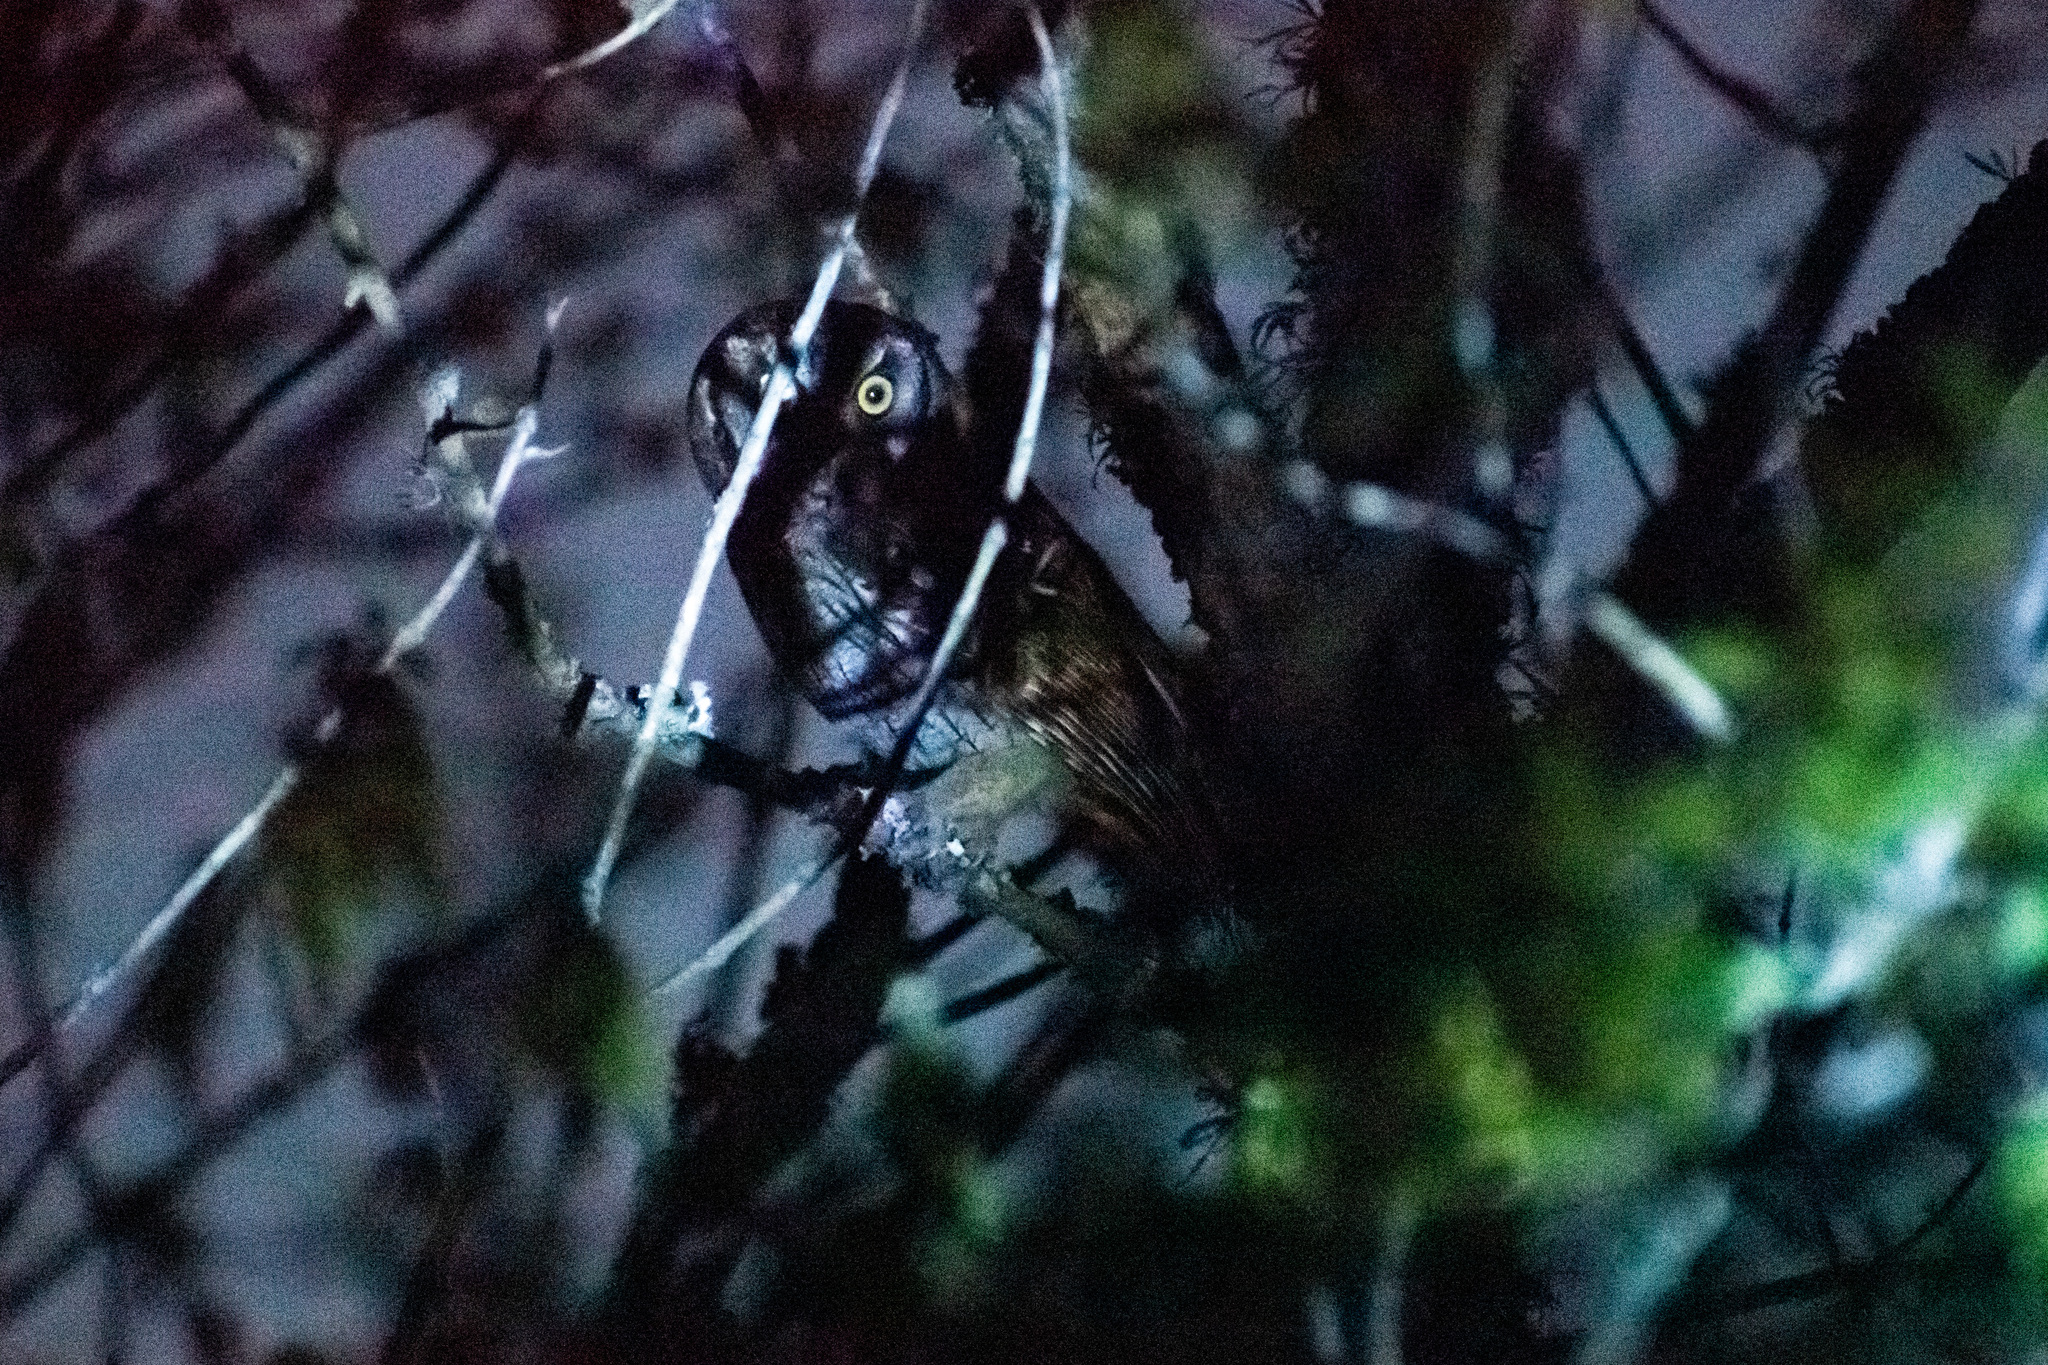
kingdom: Animalia
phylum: Chordata
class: Aves
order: Strigiformes
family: Strigidae
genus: Megascops
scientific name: Megascops choliba
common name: Tropical screech-owl
